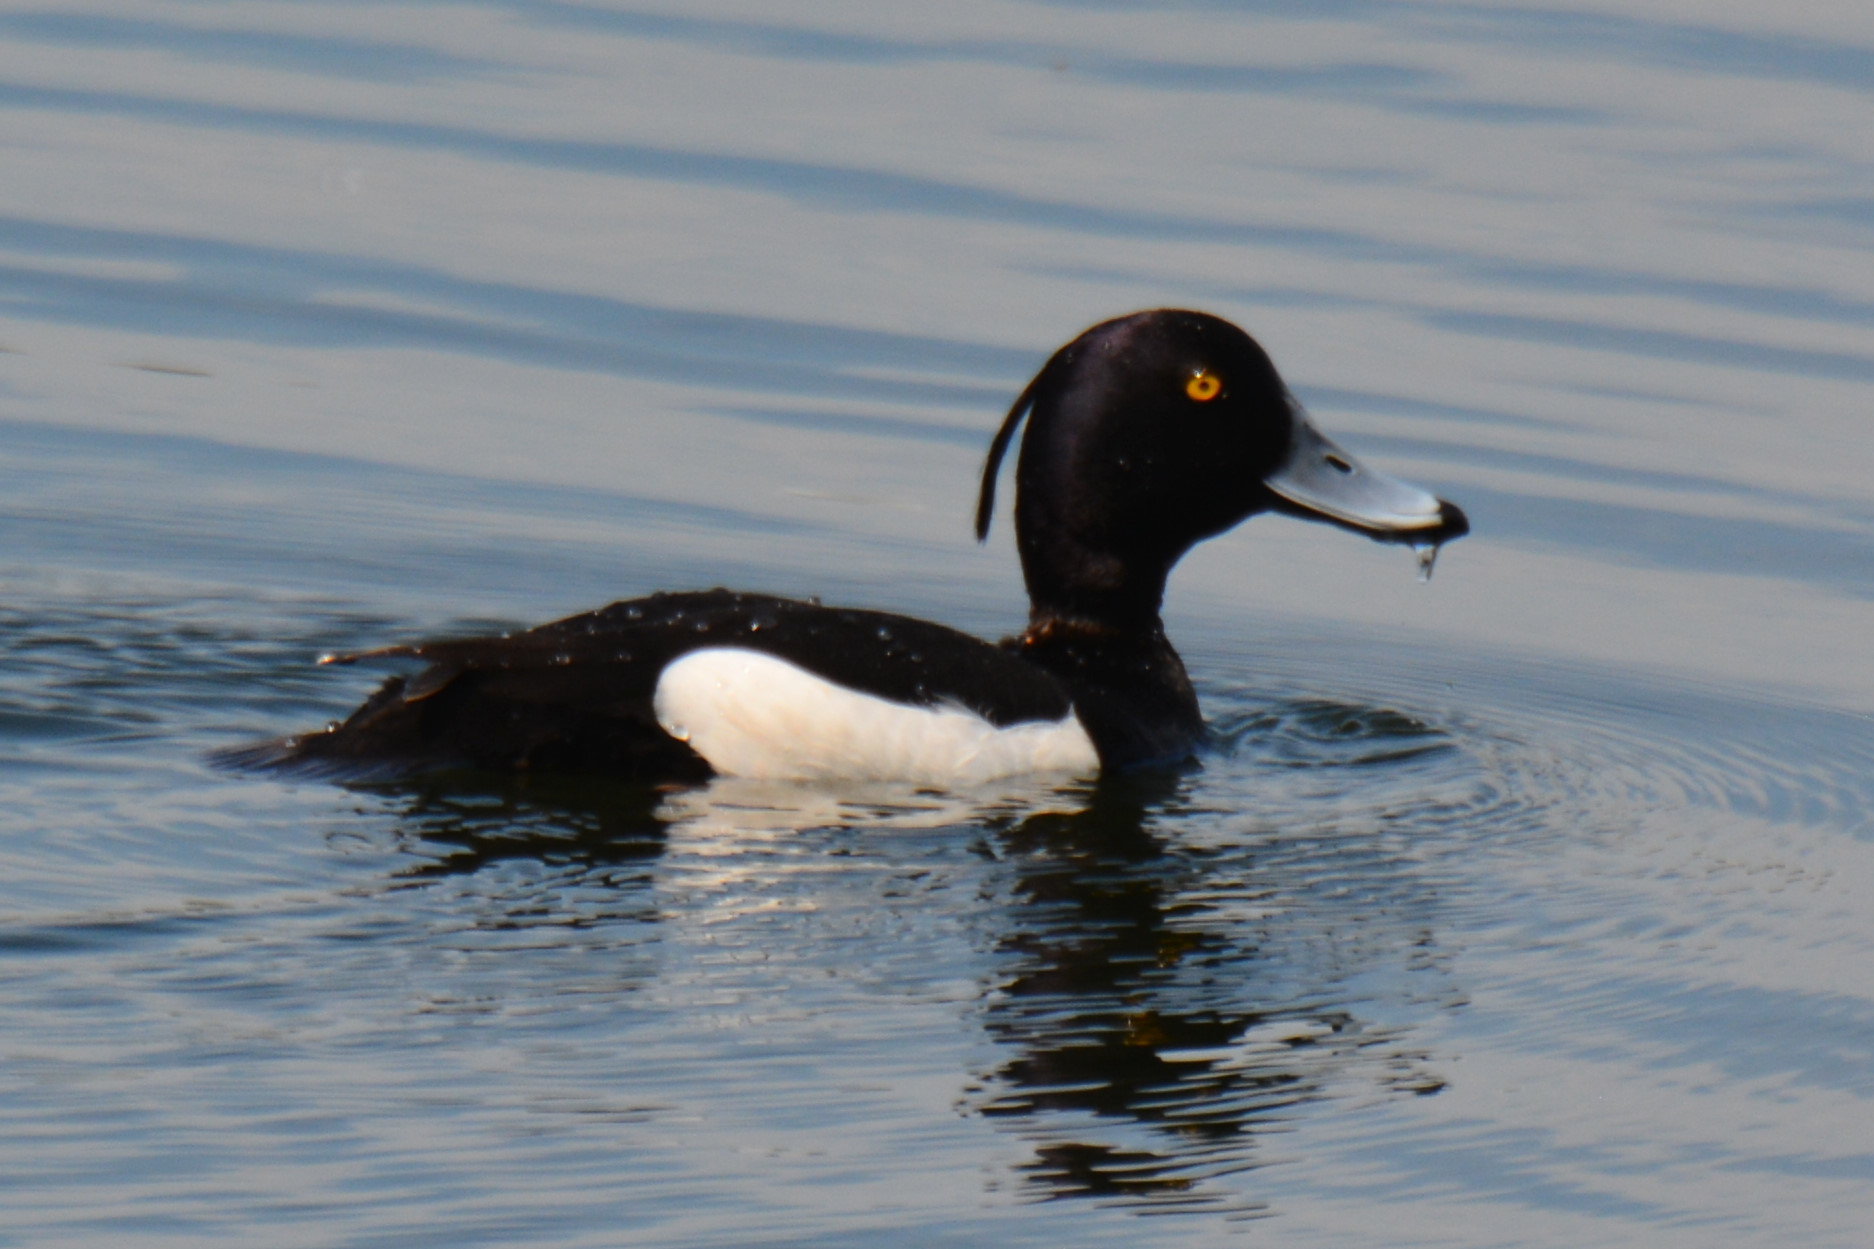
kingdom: Animalia
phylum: Chordata
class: Aves
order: Anseriformes
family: Anatidae
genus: Aythya
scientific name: Aythya fuligula
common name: Tufted duck
